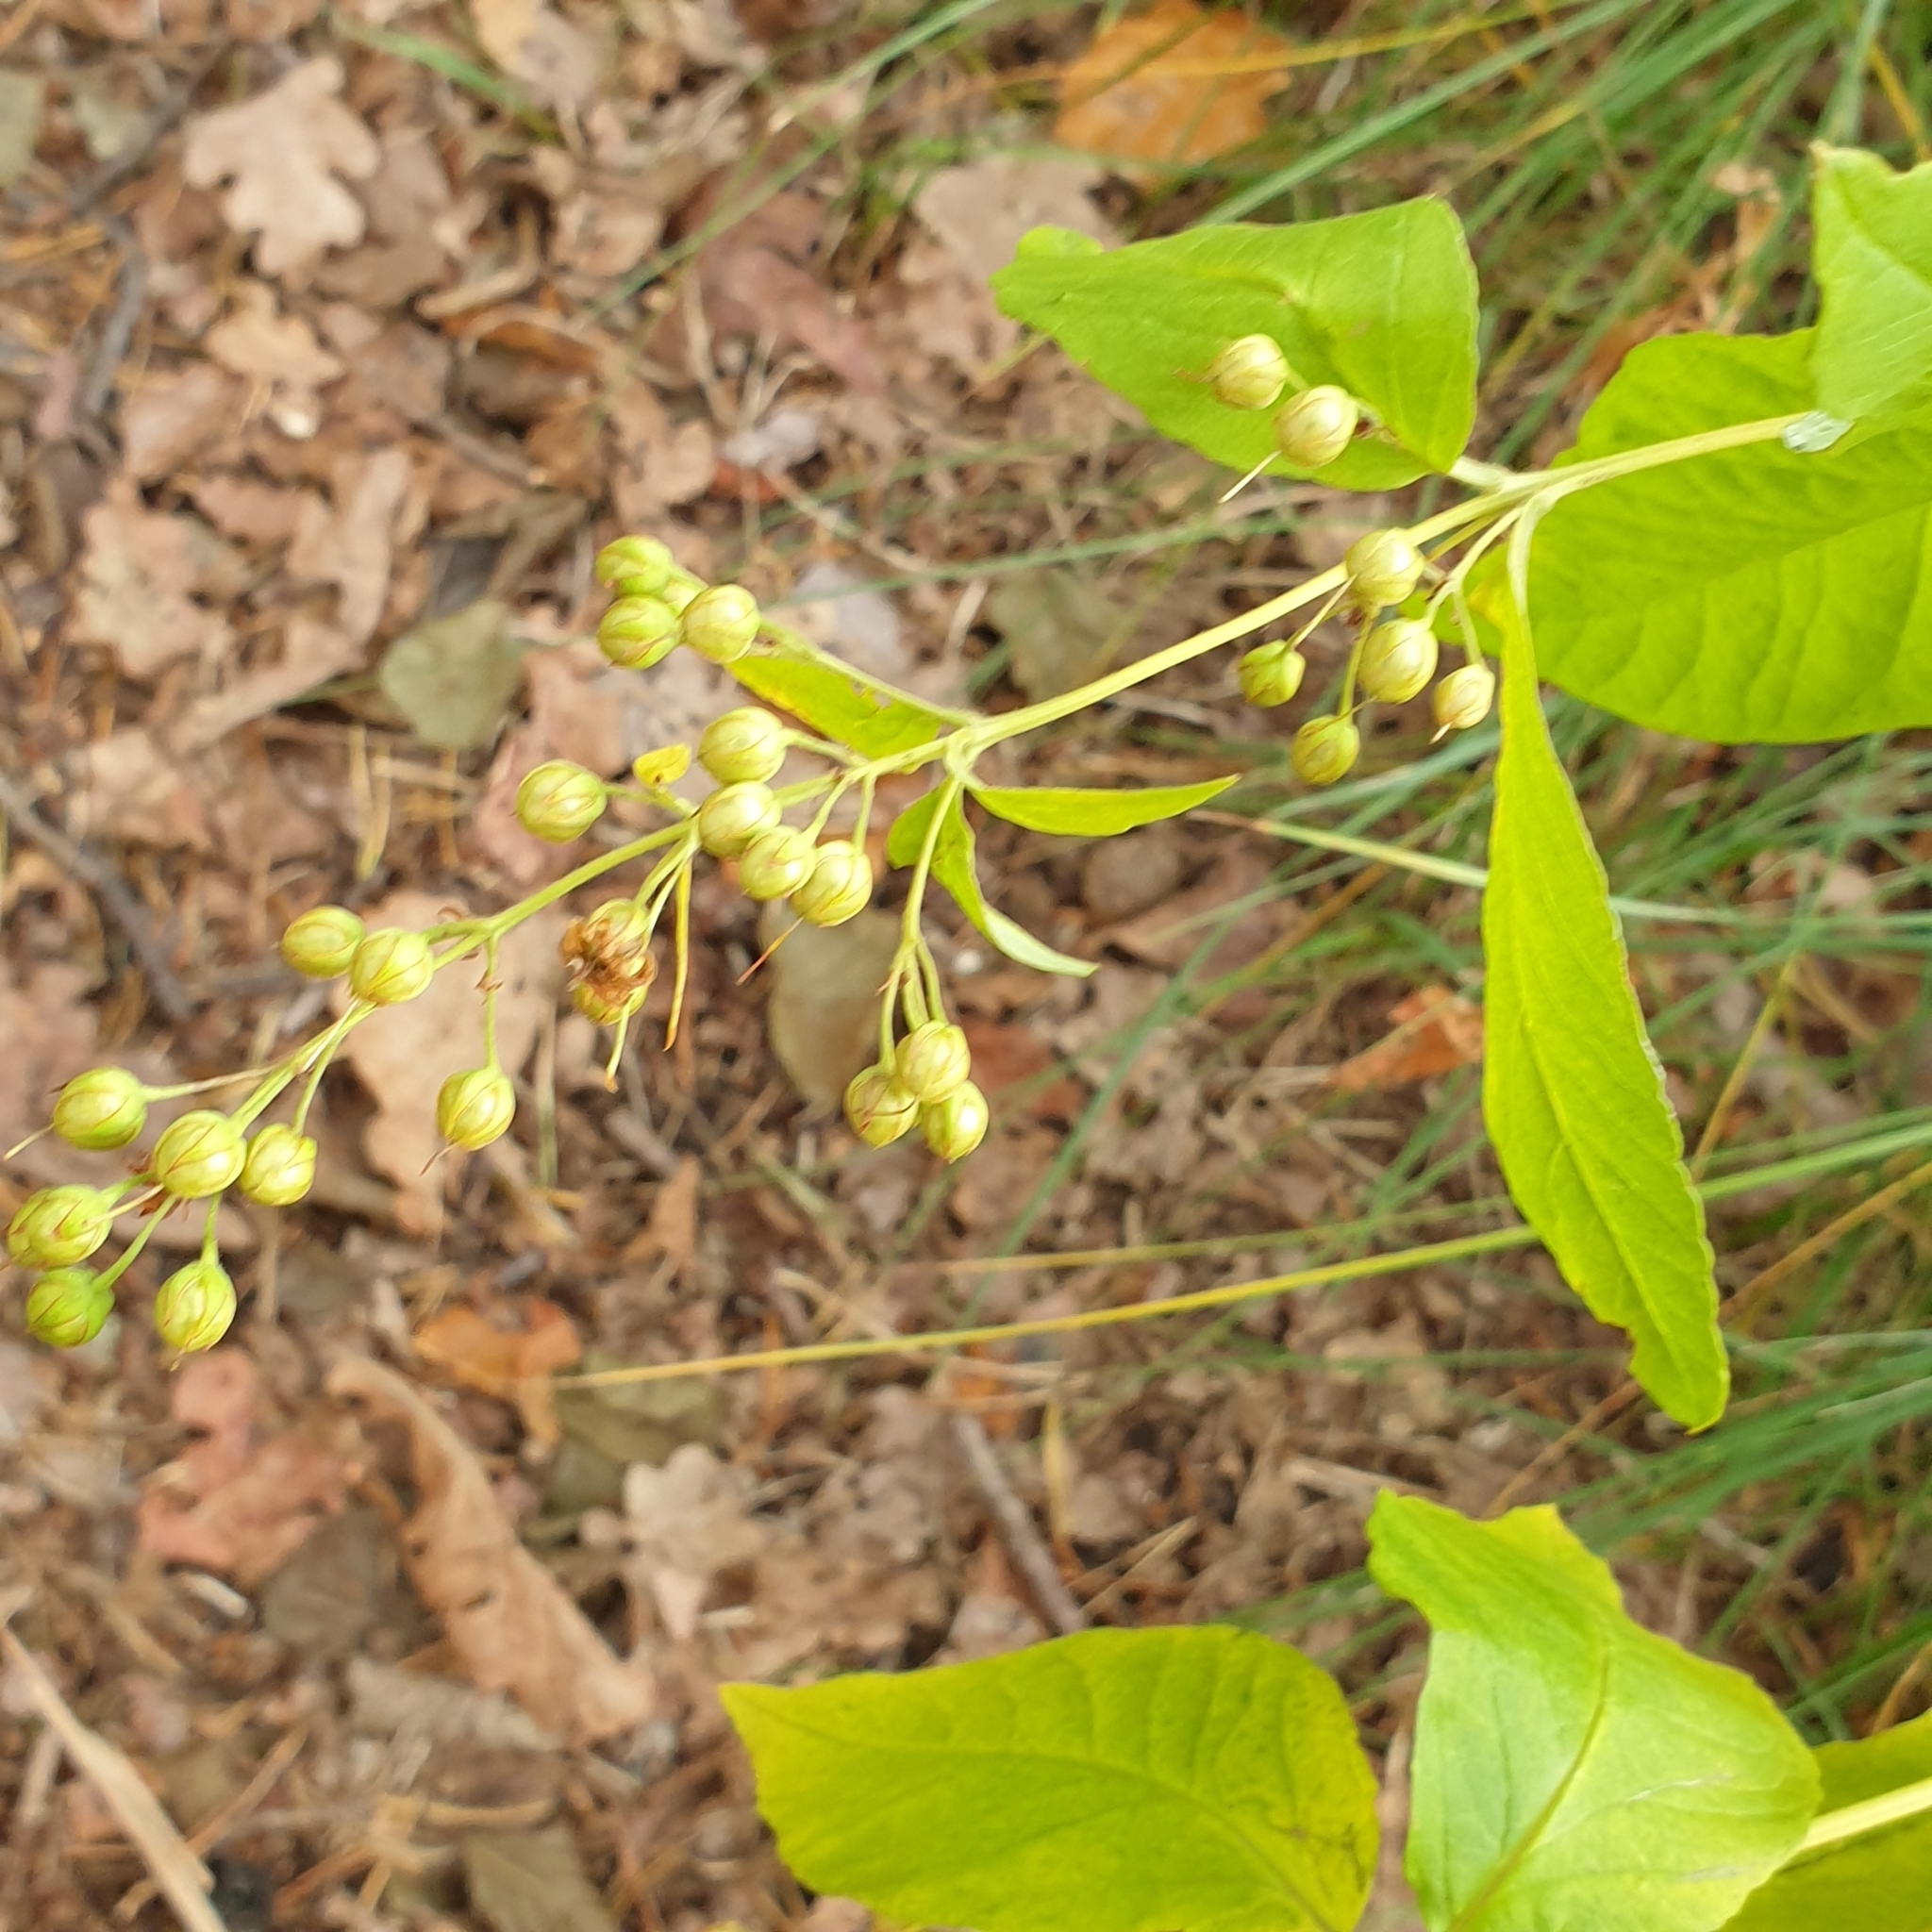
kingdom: Plantae
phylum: Tracheophyta
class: Magnoliopsida
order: Ericales
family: Primulaceae
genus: Lysimachia
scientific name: Lysimachia vulgaris
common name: Yellow loosestrife
